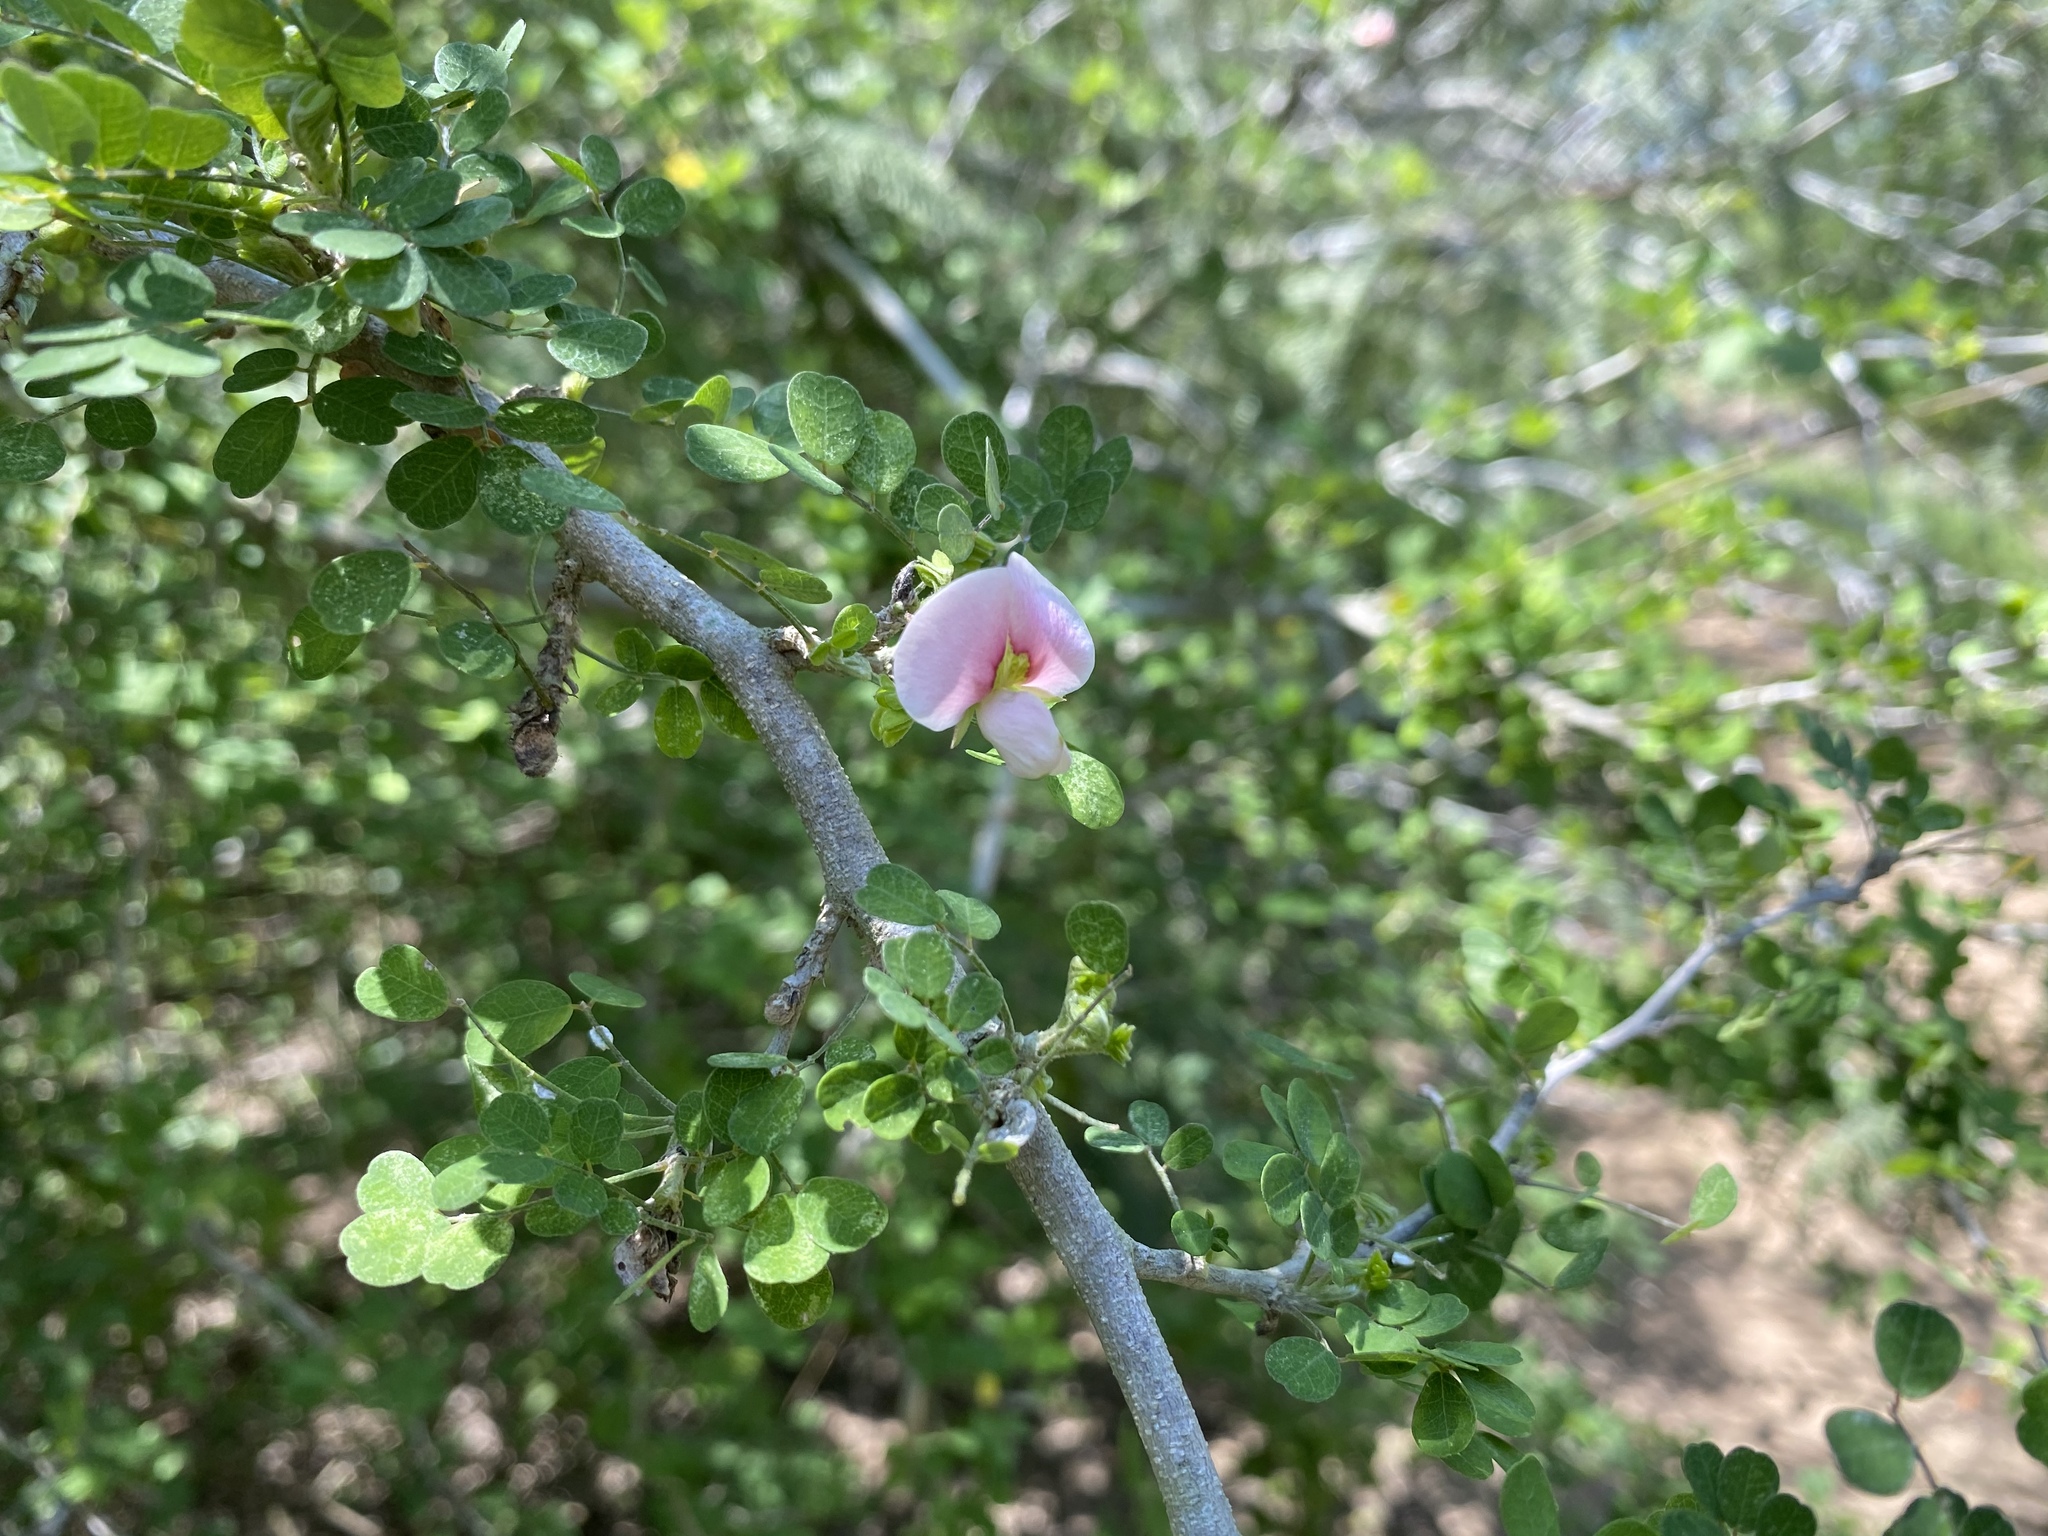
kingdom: Plantae
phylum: Tracheophyta
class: Magnoliopsida
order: Fabales
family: Fabaceae
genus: Coursetia
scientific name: Coursetia axillaris
